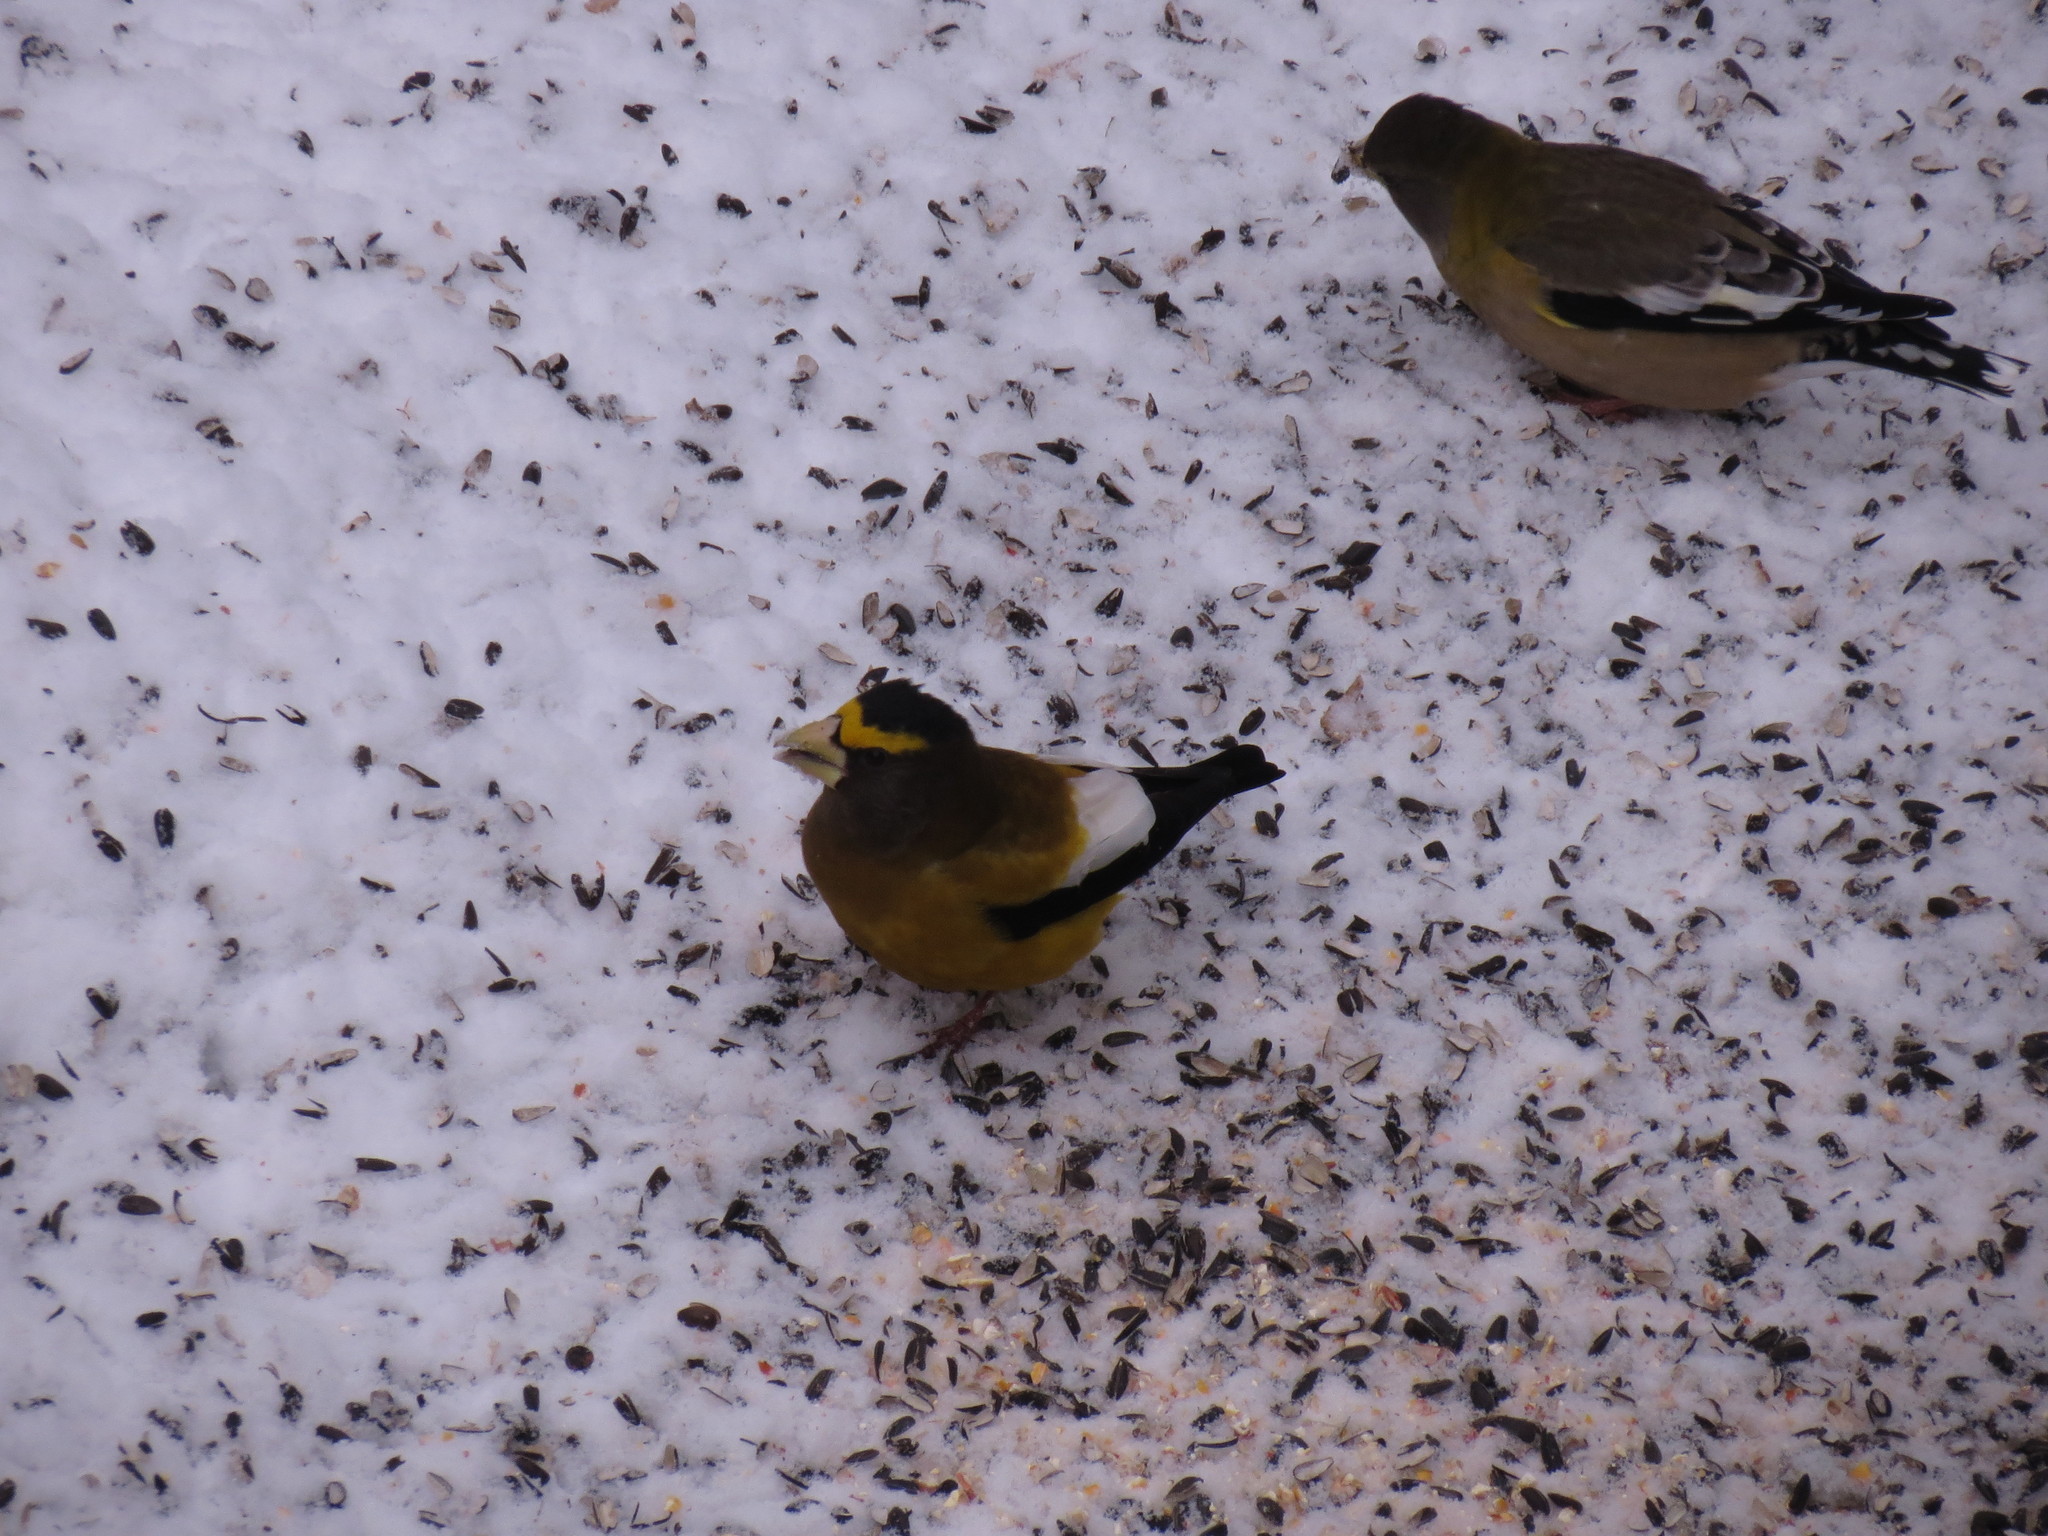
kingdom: Animalia
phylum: Chordata
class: Aves
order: Passeriformes
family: Fringillidae
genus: Hesperiphona
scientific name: Hesperiphona vespertina
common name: Evening grosbeak
